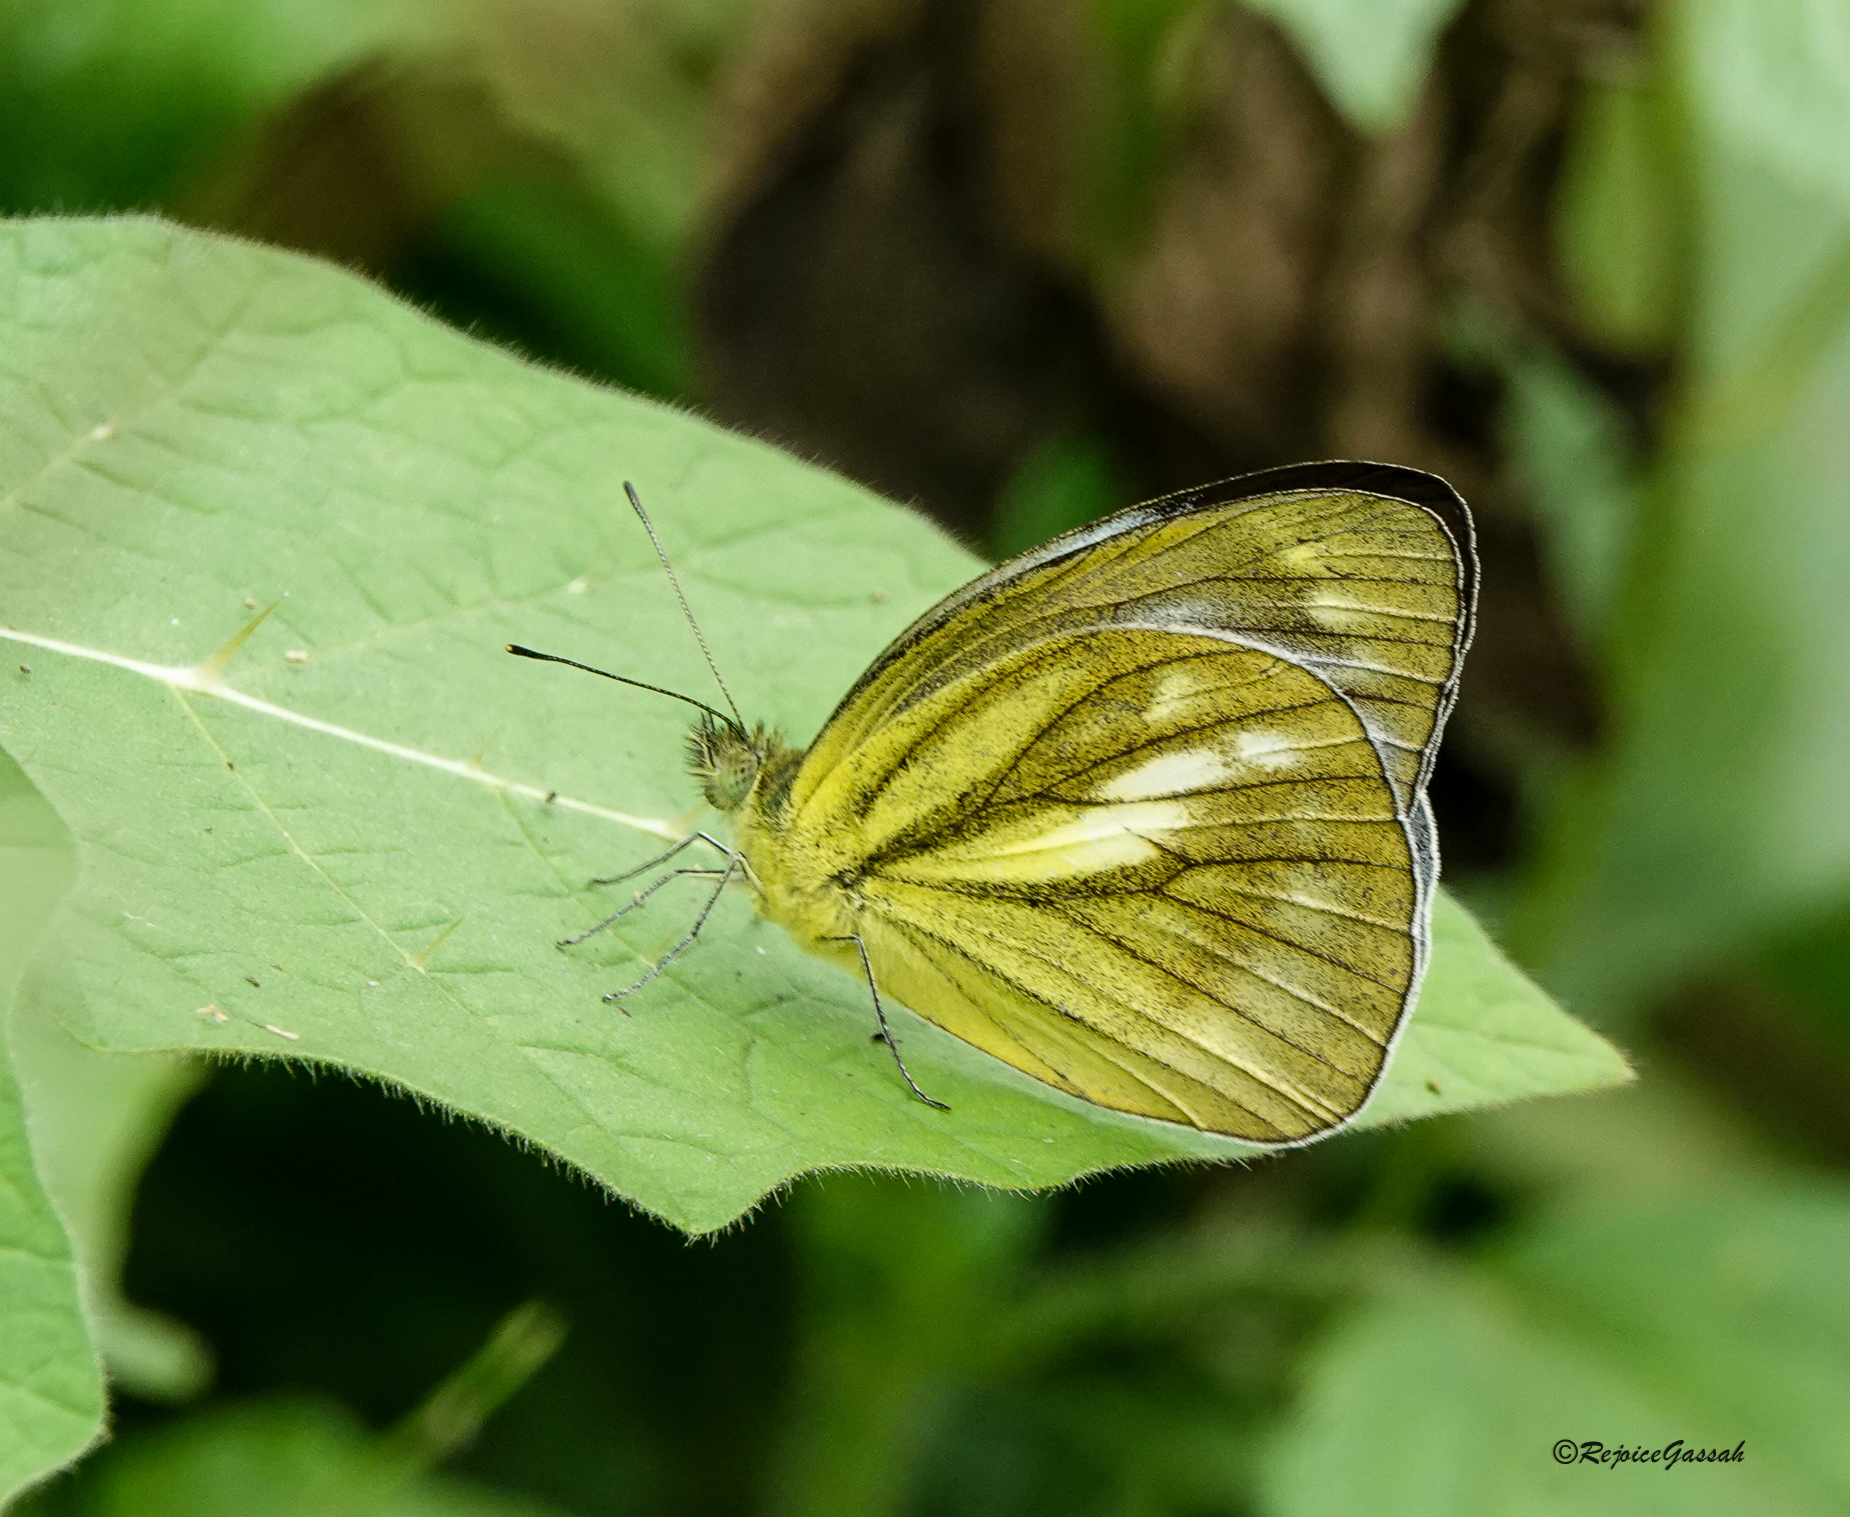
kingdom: Animalia
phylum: Arthropoda
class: Insecta
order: Lepidoptera
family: Pieridae
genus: Cepora
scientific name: Cepora nadina
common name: Lesser gull
